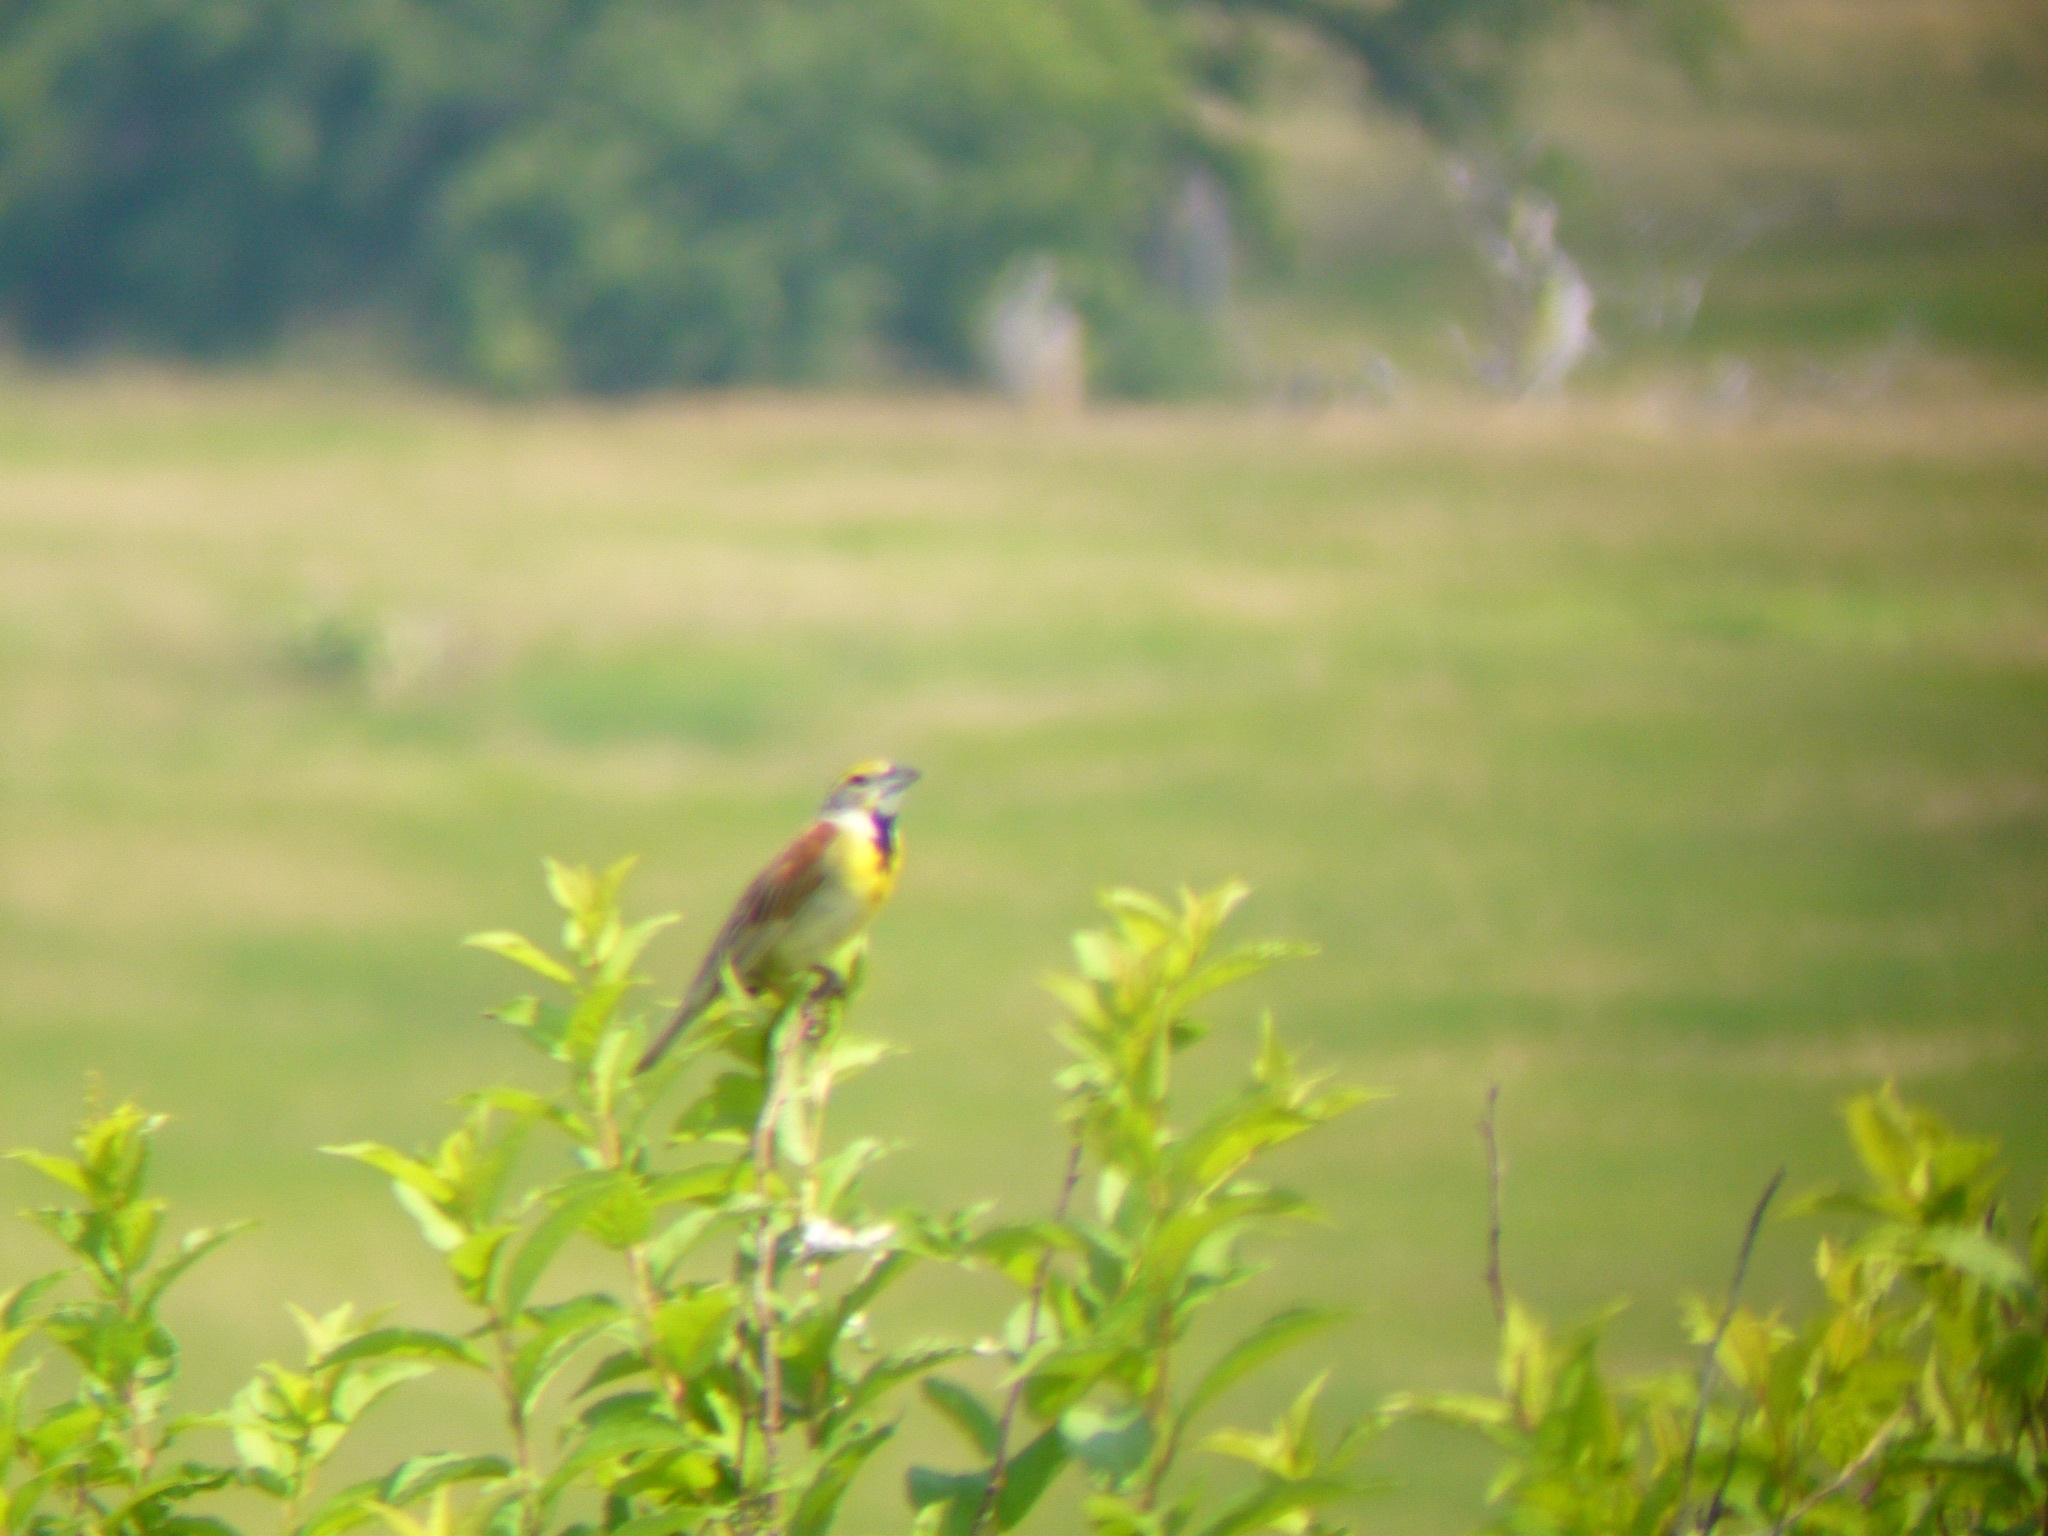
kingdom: Animalia
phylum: Chordata
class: Aves
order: Passeriformes
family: Cardinalidae
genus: Spiza
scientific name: Spiza americana
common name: Dickcissel
